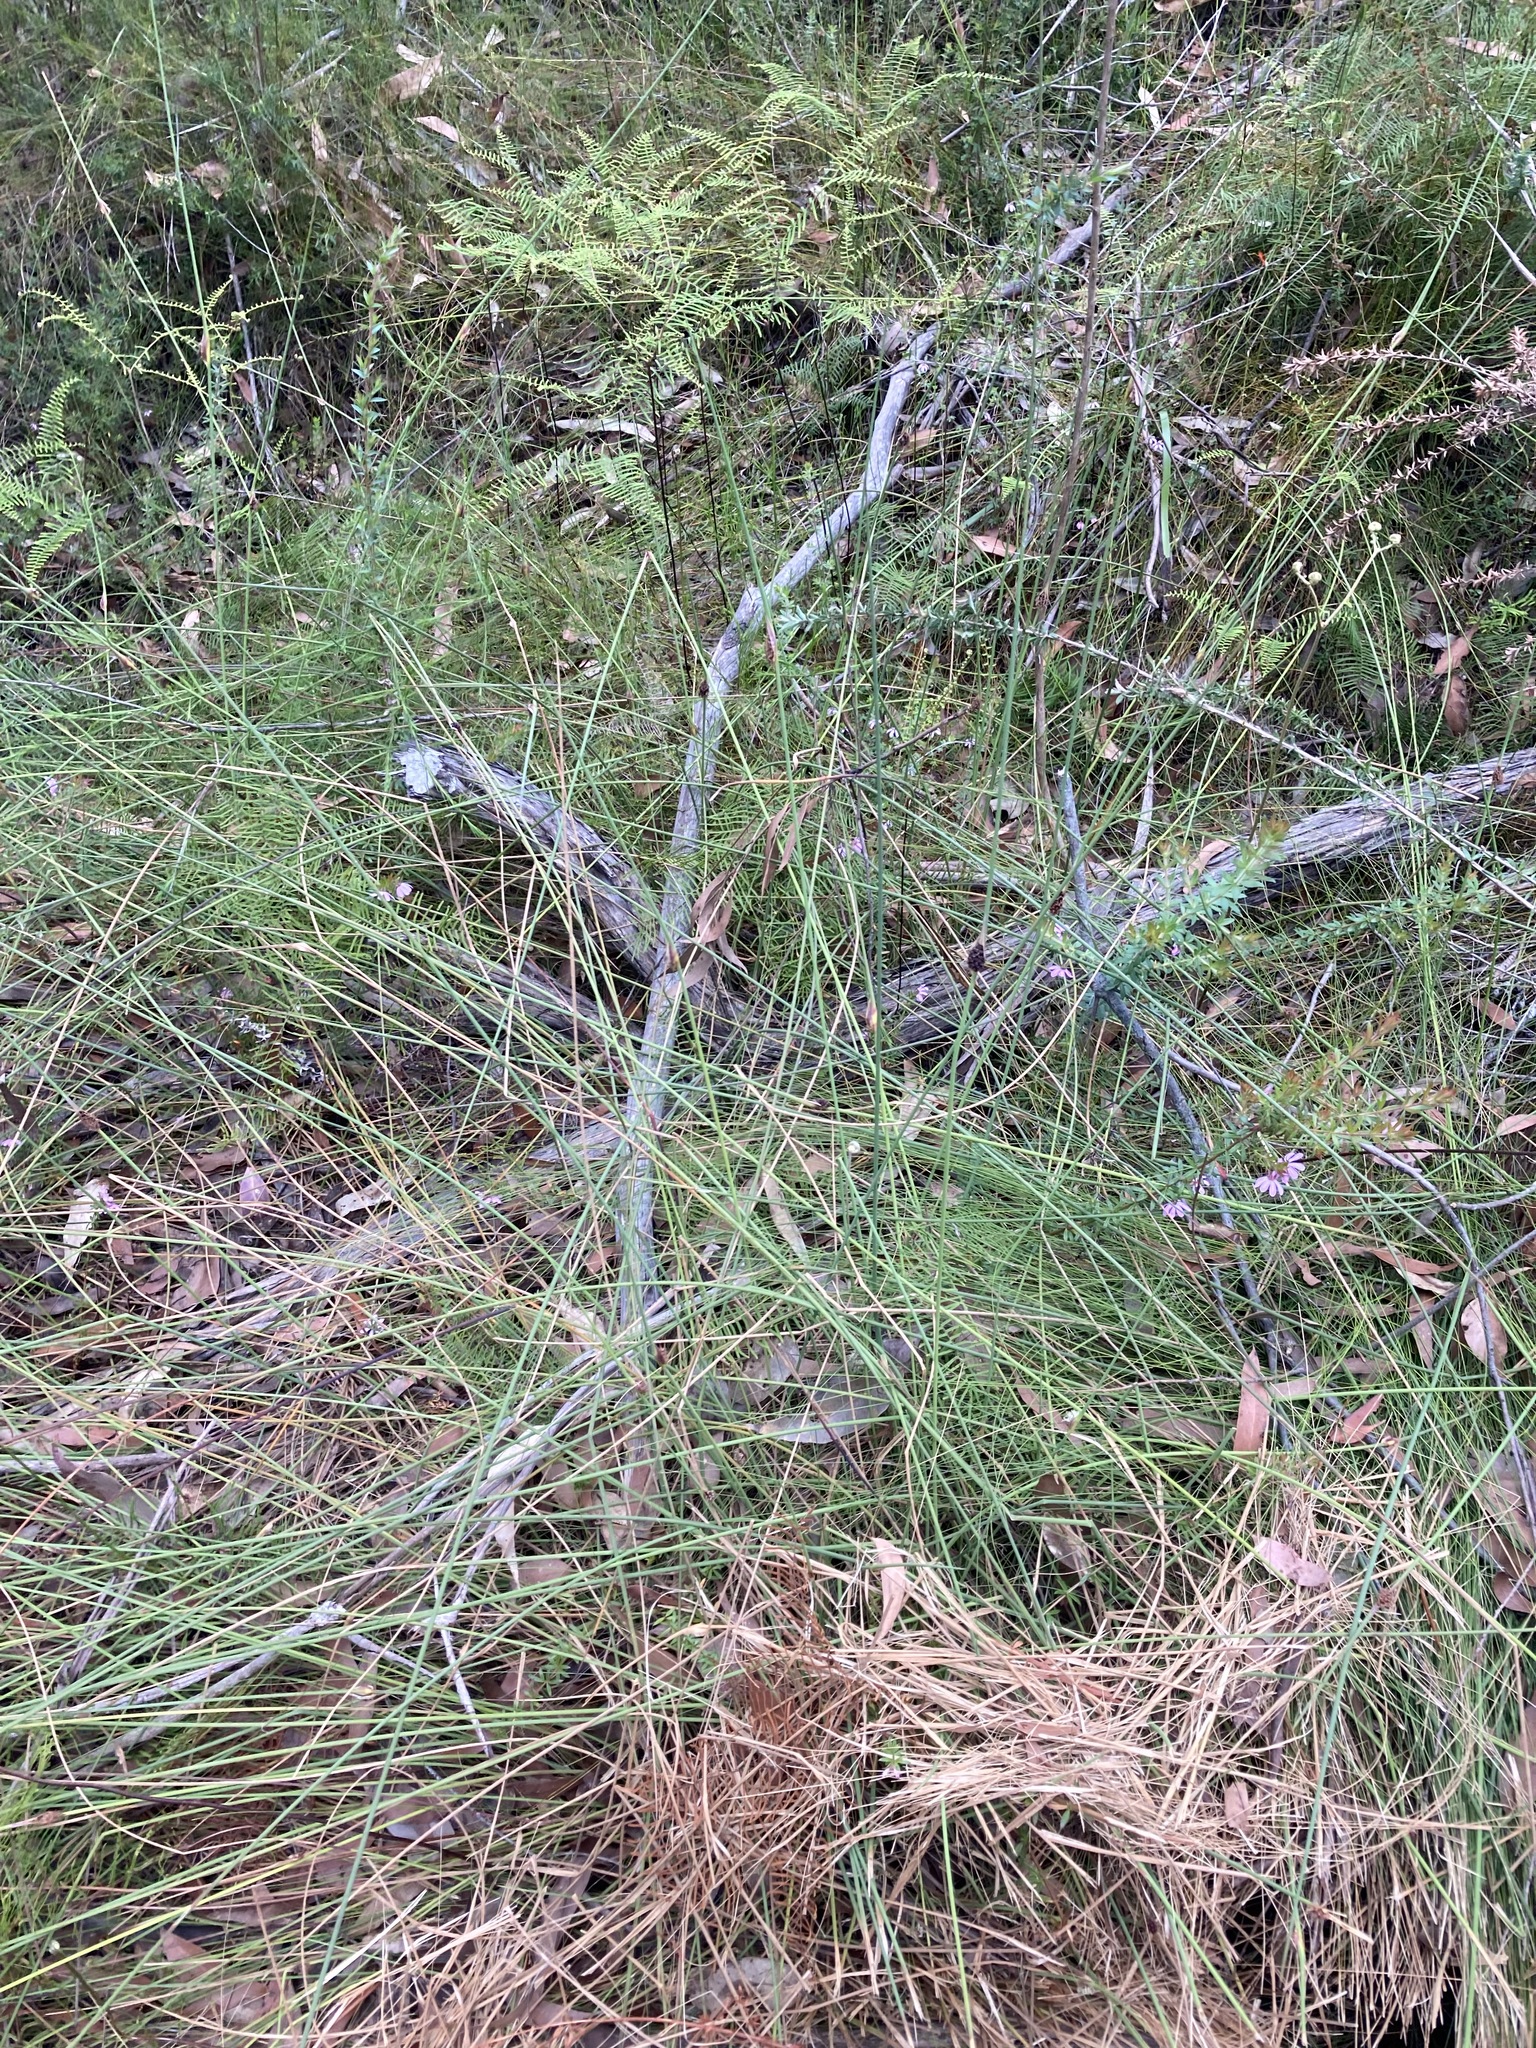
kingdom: Plantae
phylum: Tracheophyta
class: Liliopsida
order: Poales
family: Cyperaceae
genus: Chorizandra
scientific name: Chorizandra cymbaria
